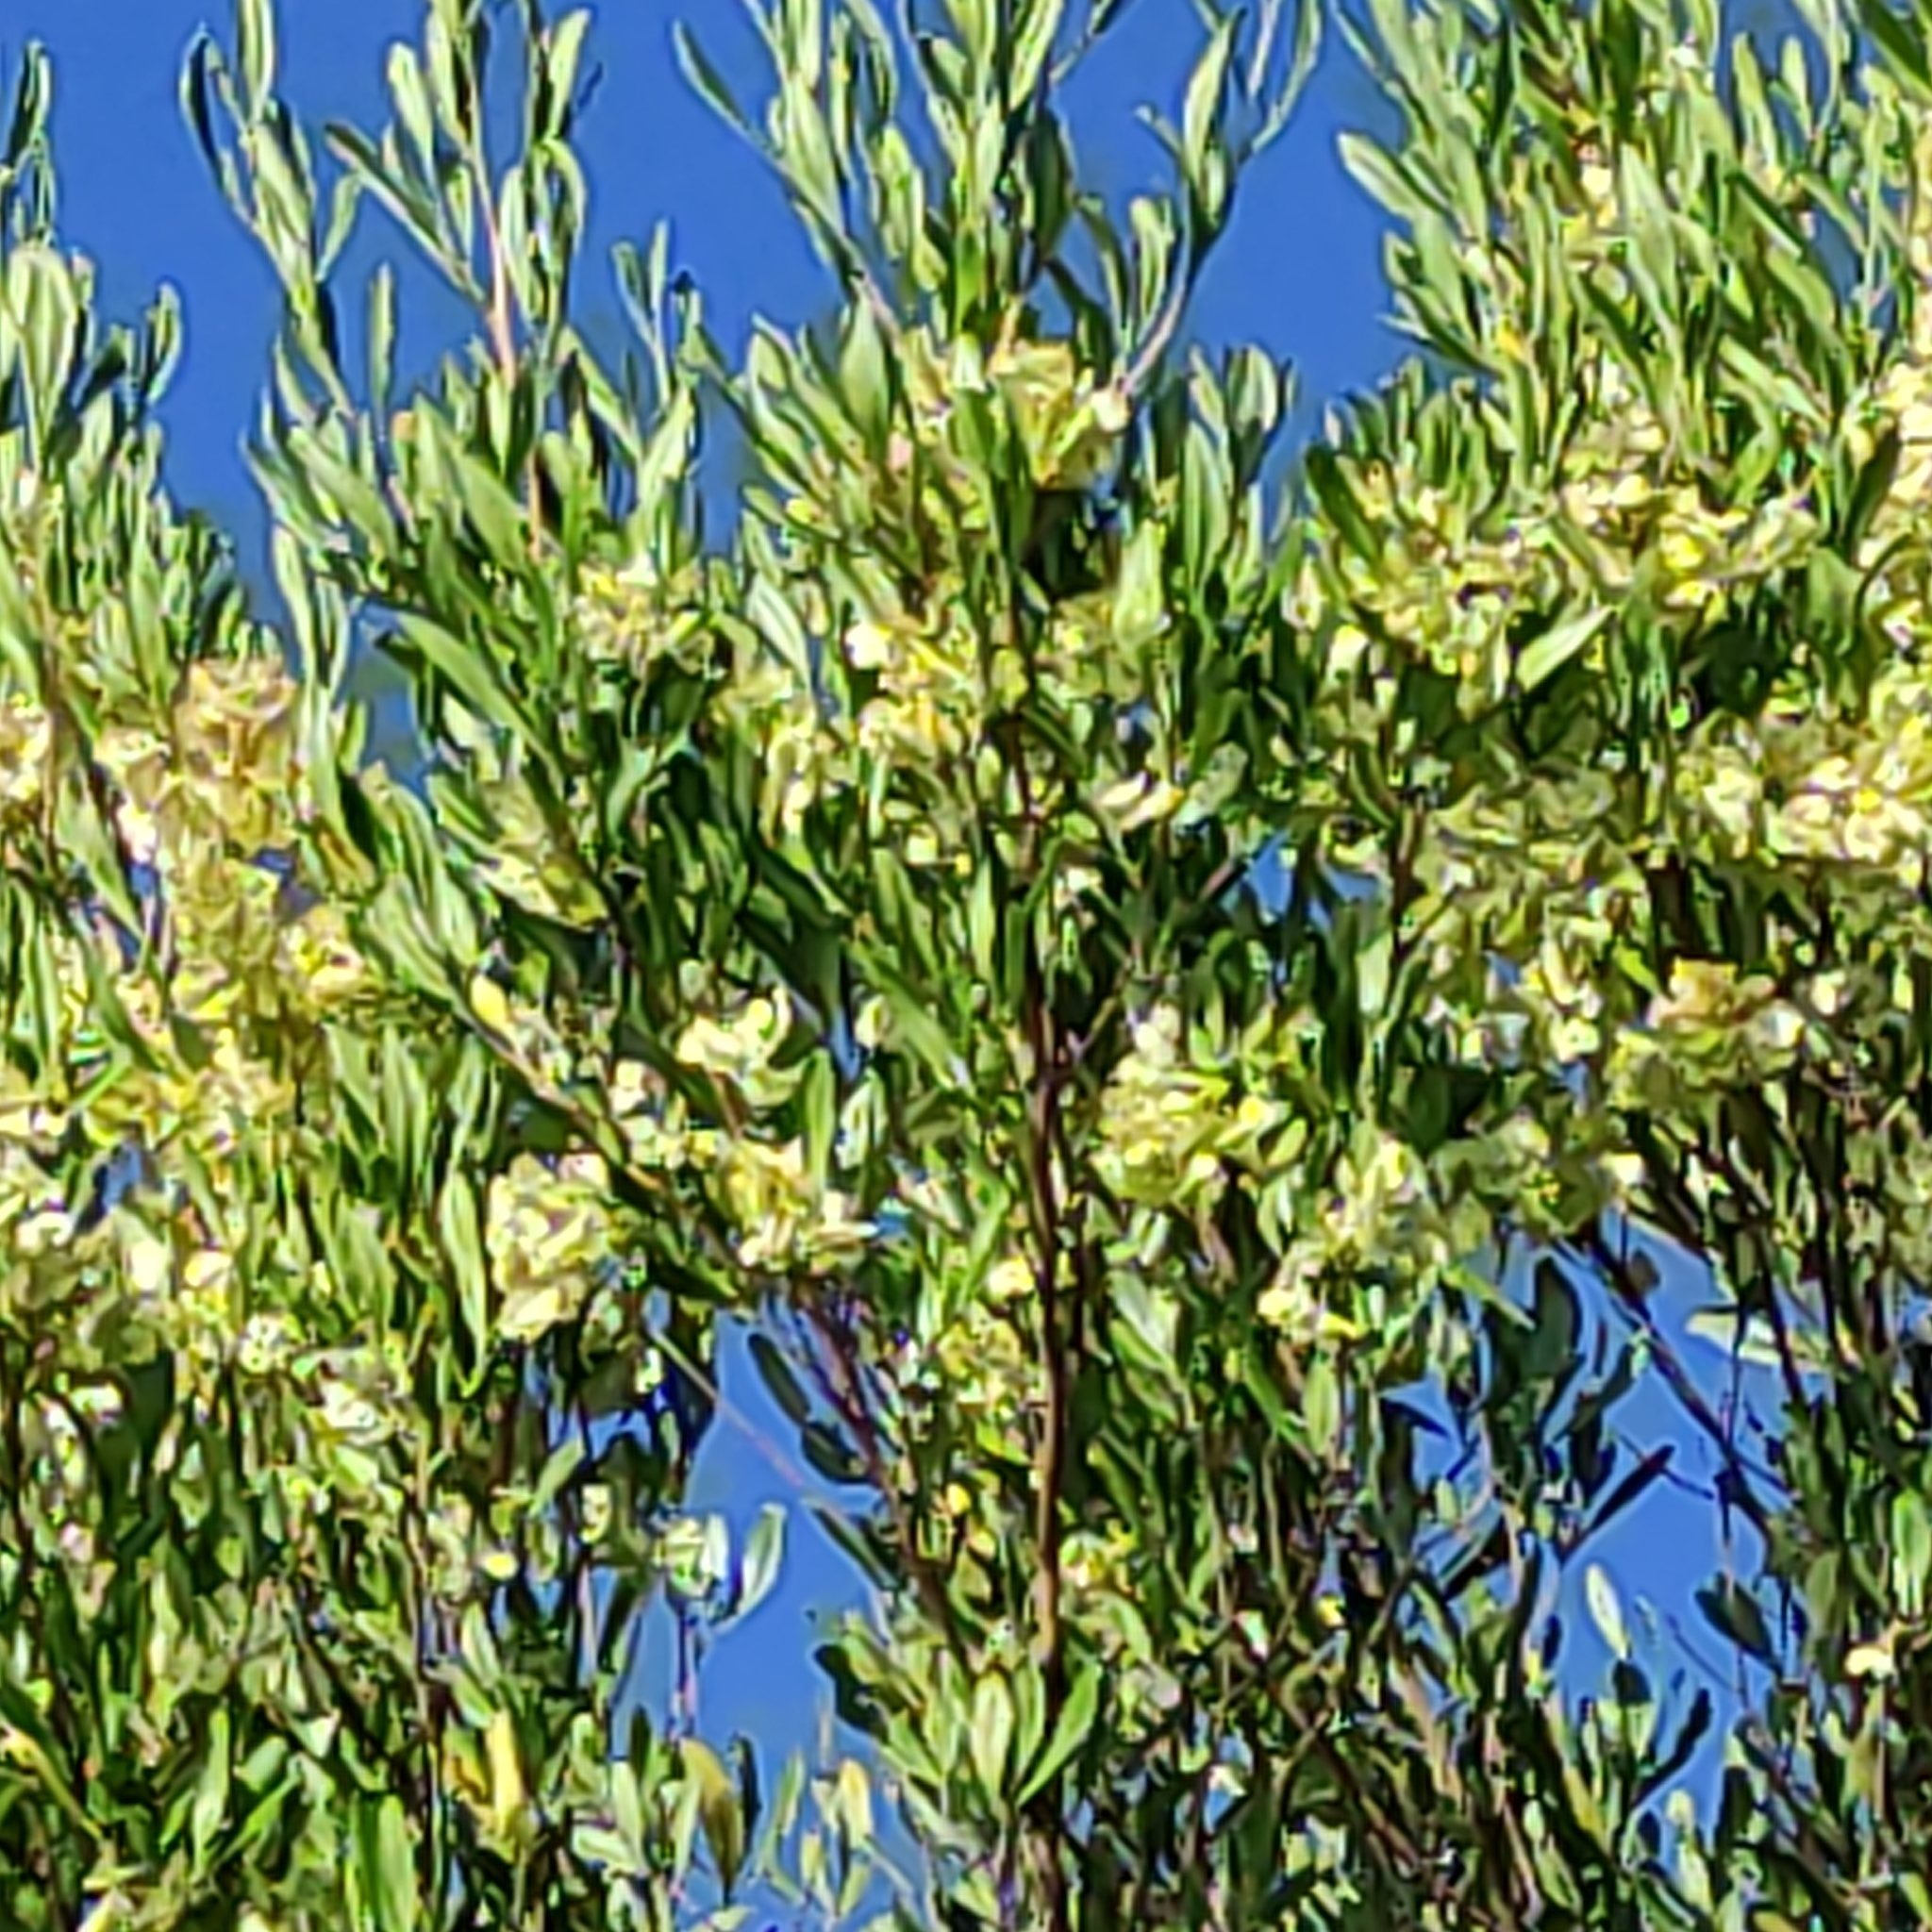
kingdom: Plantae
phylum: Tracheophyta
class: Magnoliopsida
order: Sapindales
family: Sapindaceae
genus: Dodonaea
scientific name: Dodonaea viscosa
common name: Hopbush
